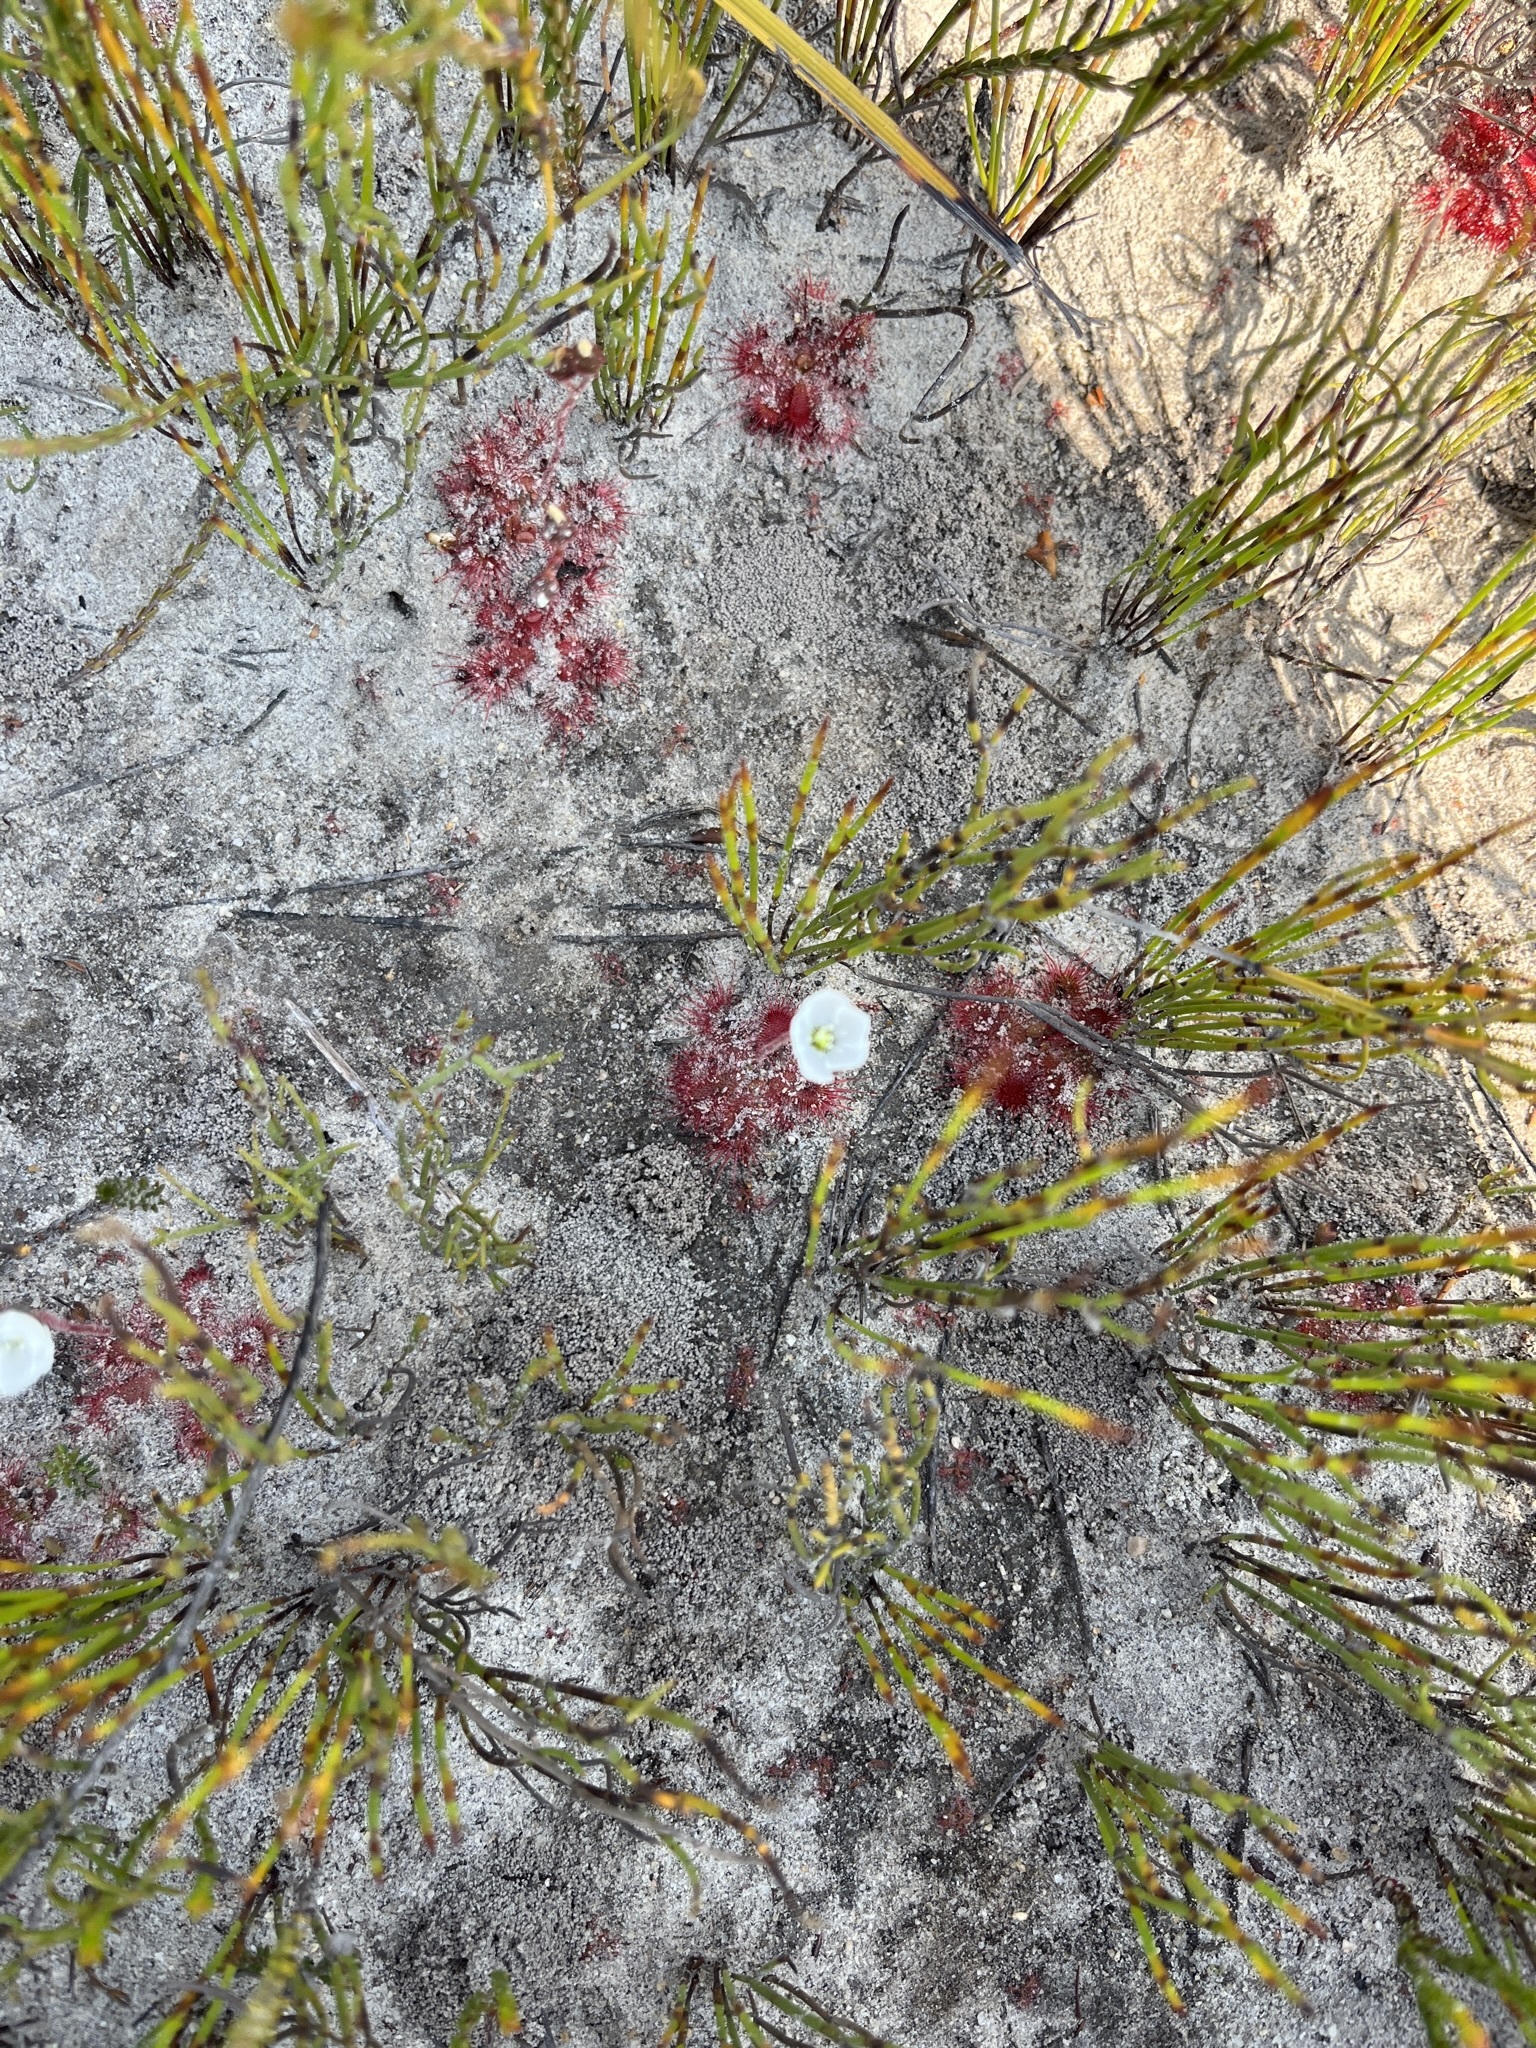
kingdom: Plantae
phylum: Tracheophyta
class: Magnoliopsida
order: Caryophyllales
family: Droseraceae
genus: Drosera
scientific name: Drosera trinervia
